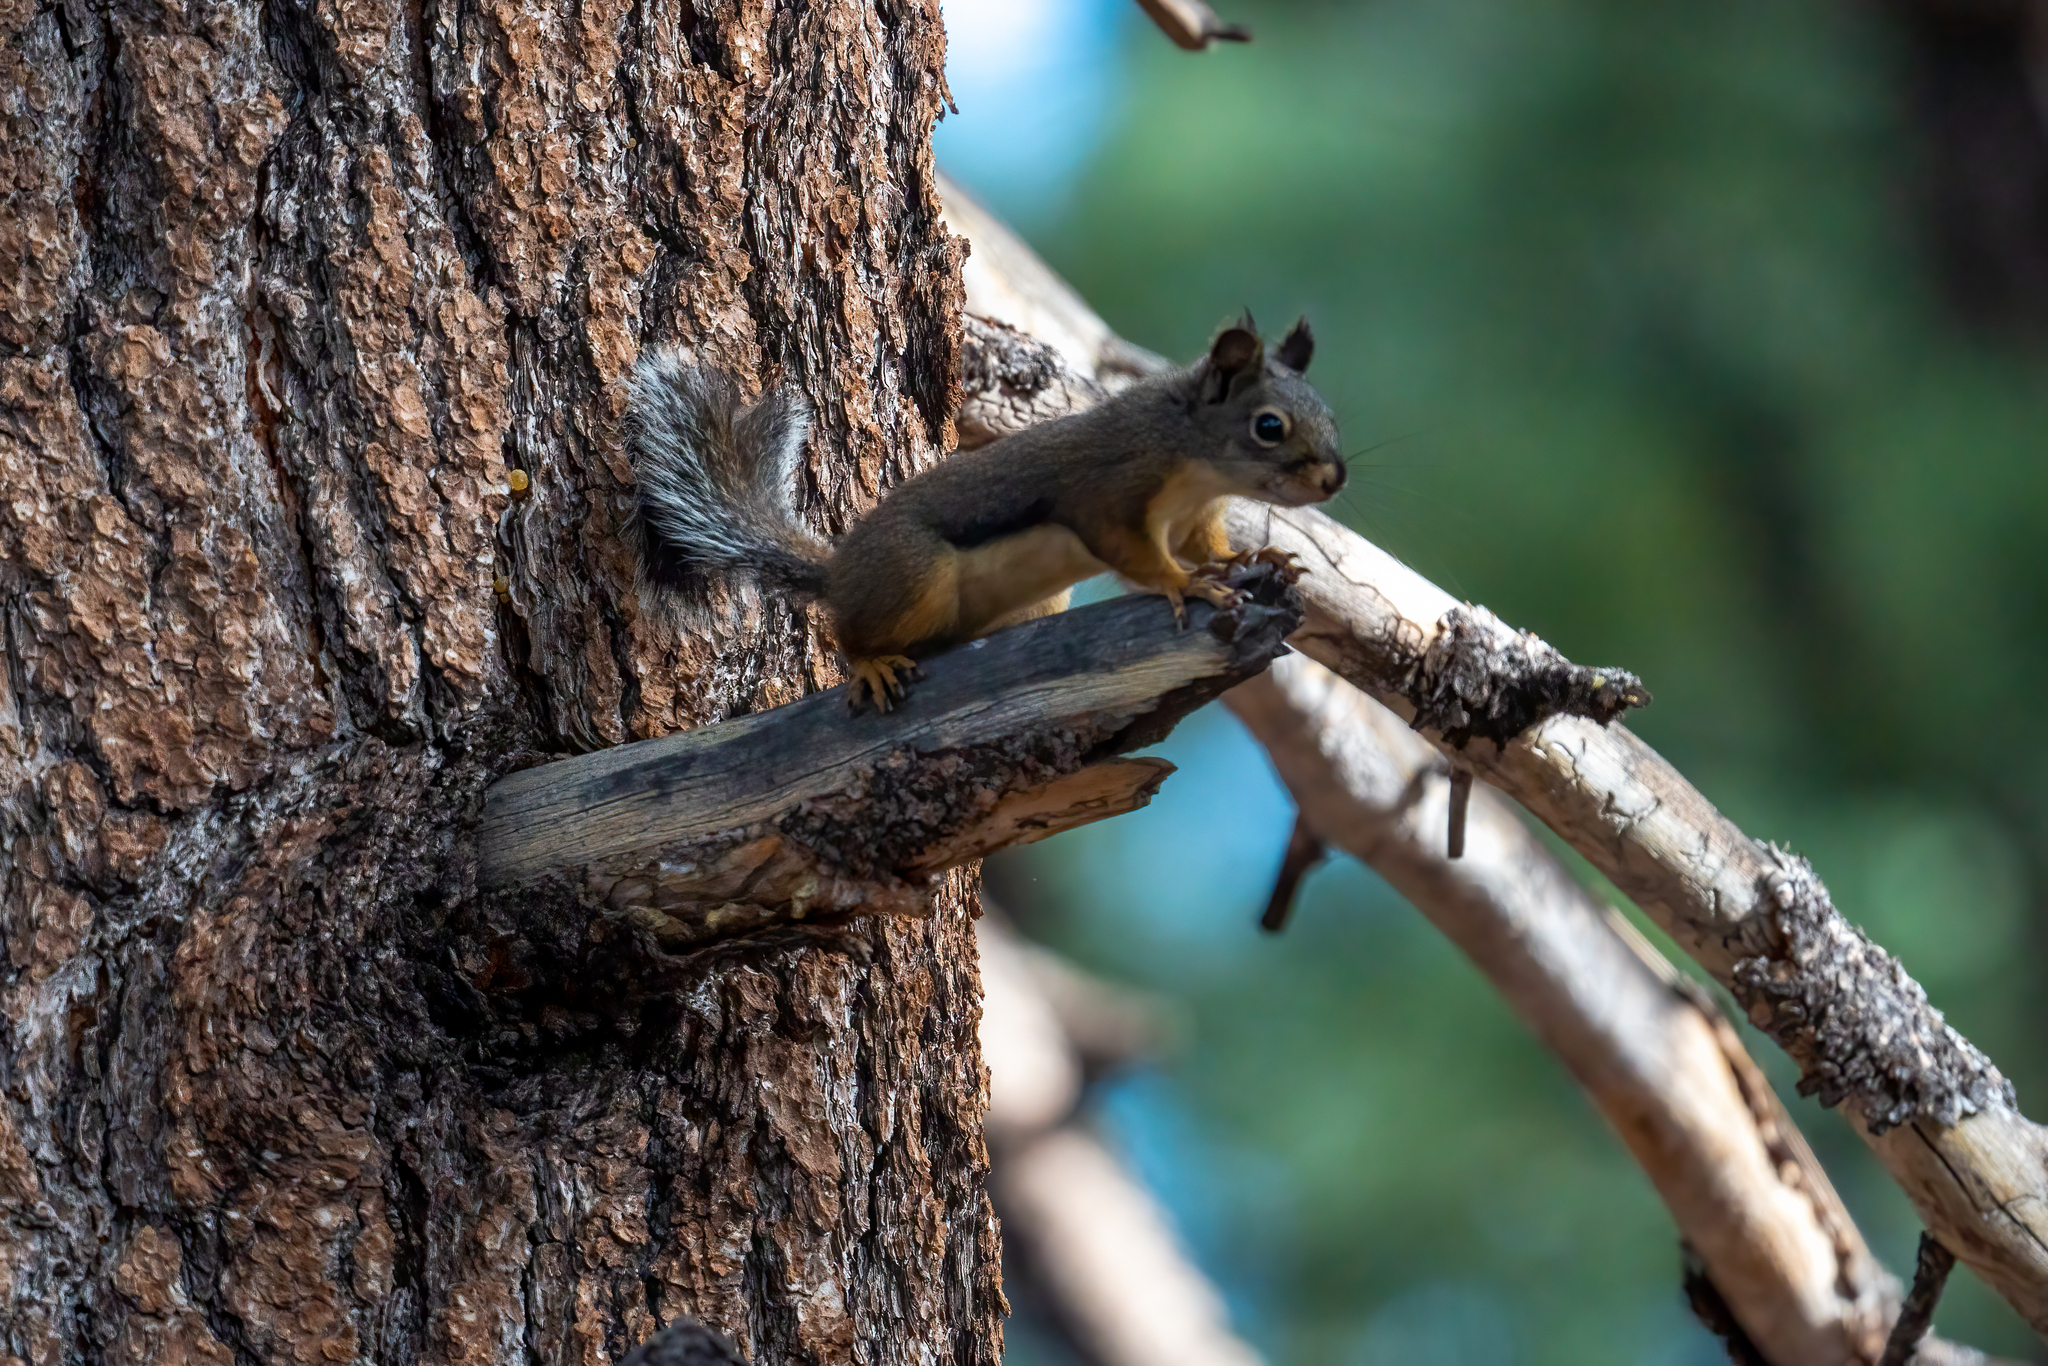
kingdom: Animalia
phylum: Chordata
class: Mammalia
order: Rodentia
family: Sciuridae
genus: Tamiasciurus
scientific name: Tamiasciurus douglasii
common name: Douglas's squirrel
